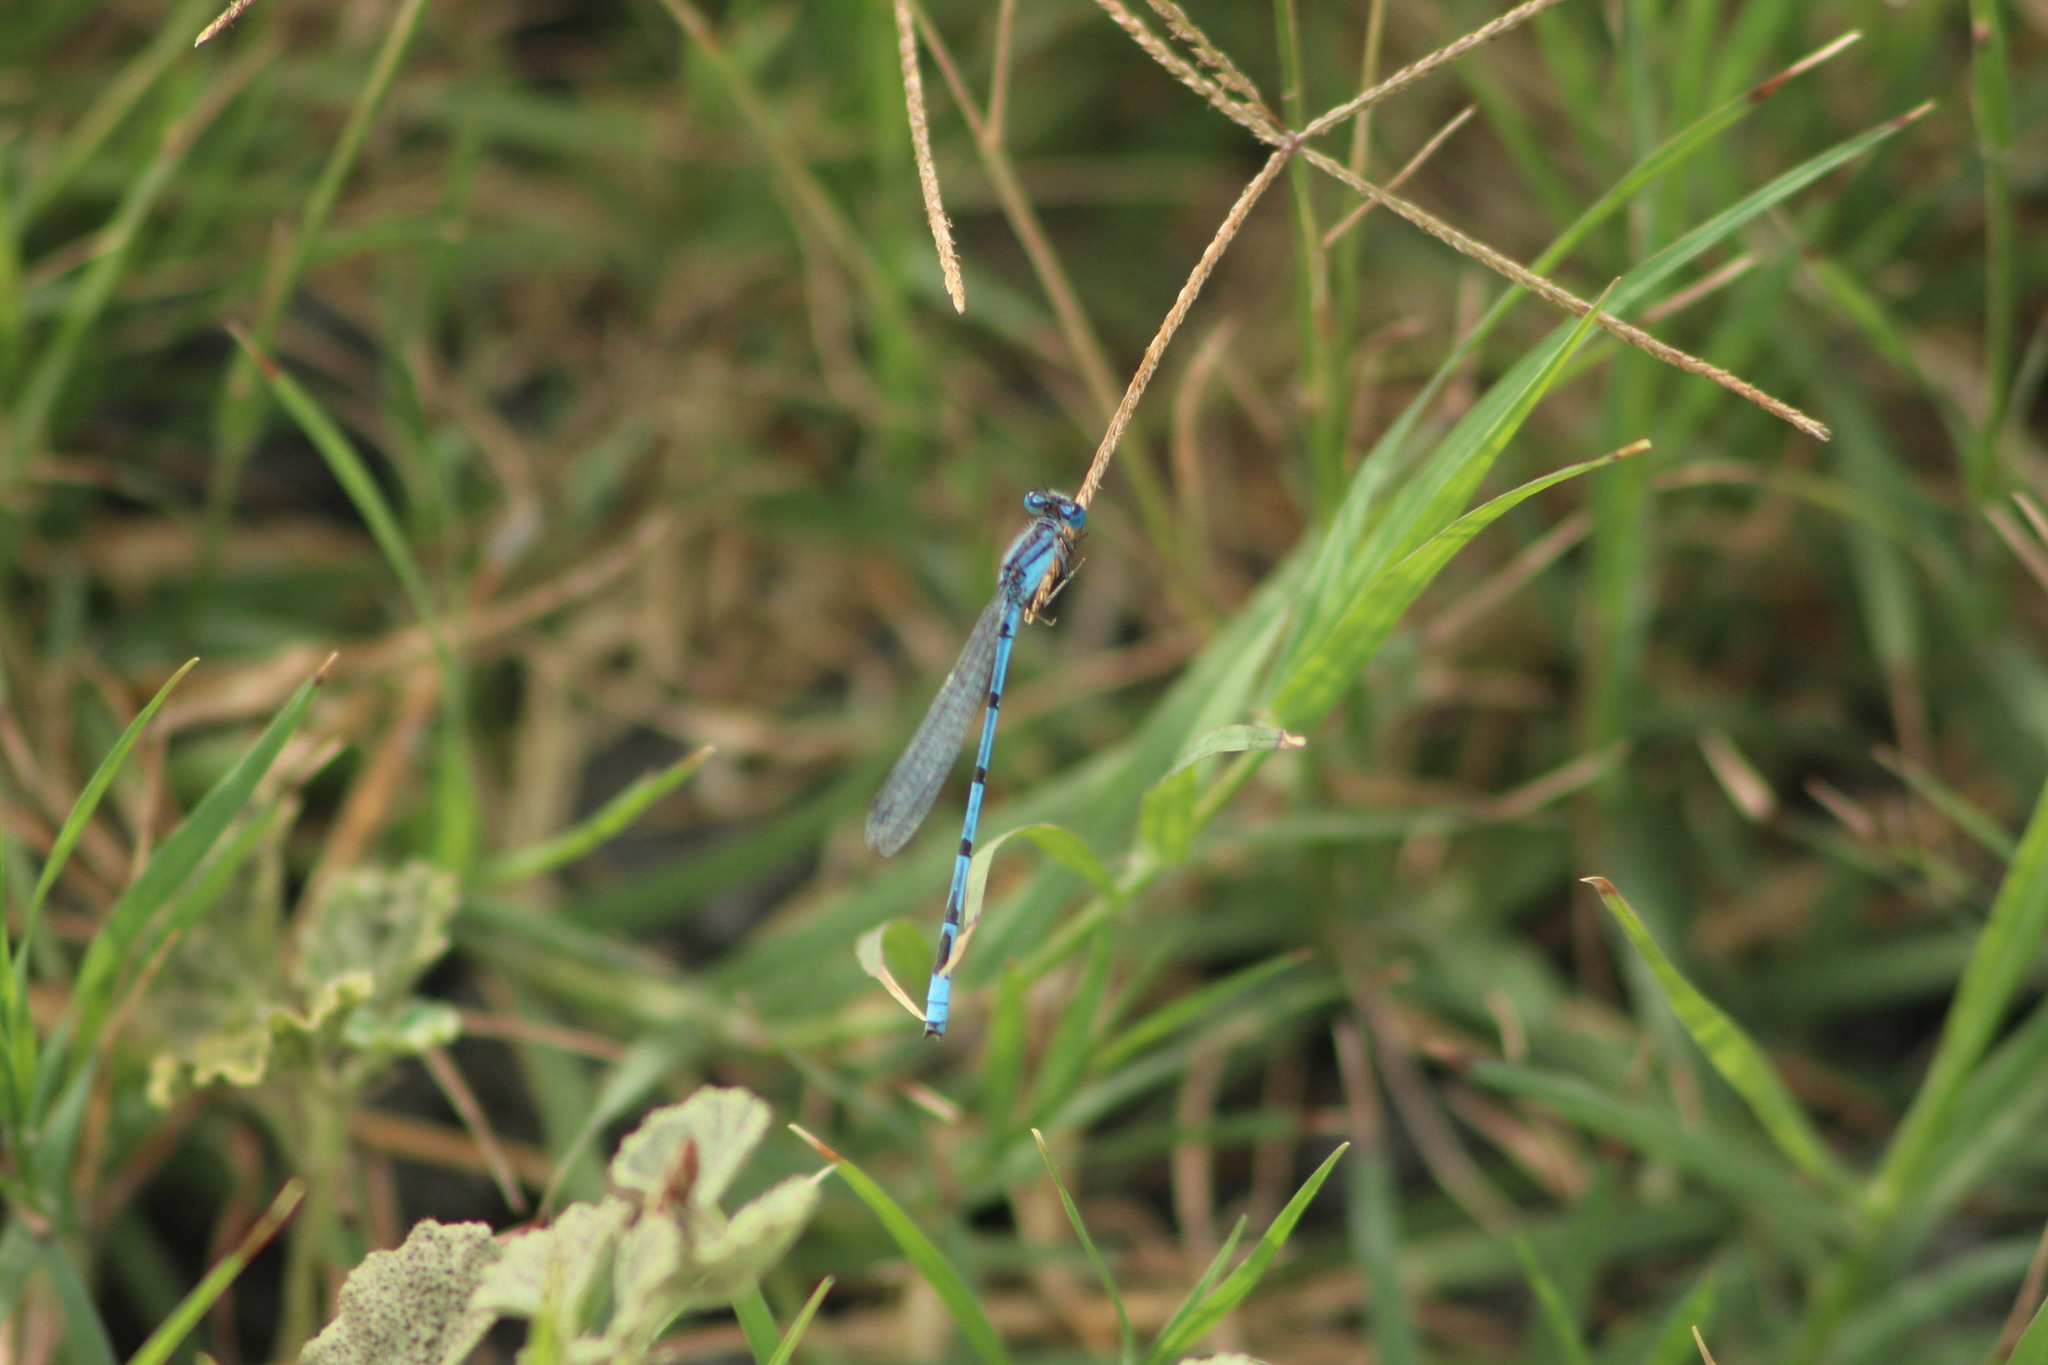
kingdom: Animalia
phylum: Arthropoda
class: Insecta
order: Odonata
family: Coenagrionidae
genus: Enallagma
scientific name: Enallagma civile
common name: Damselfly
